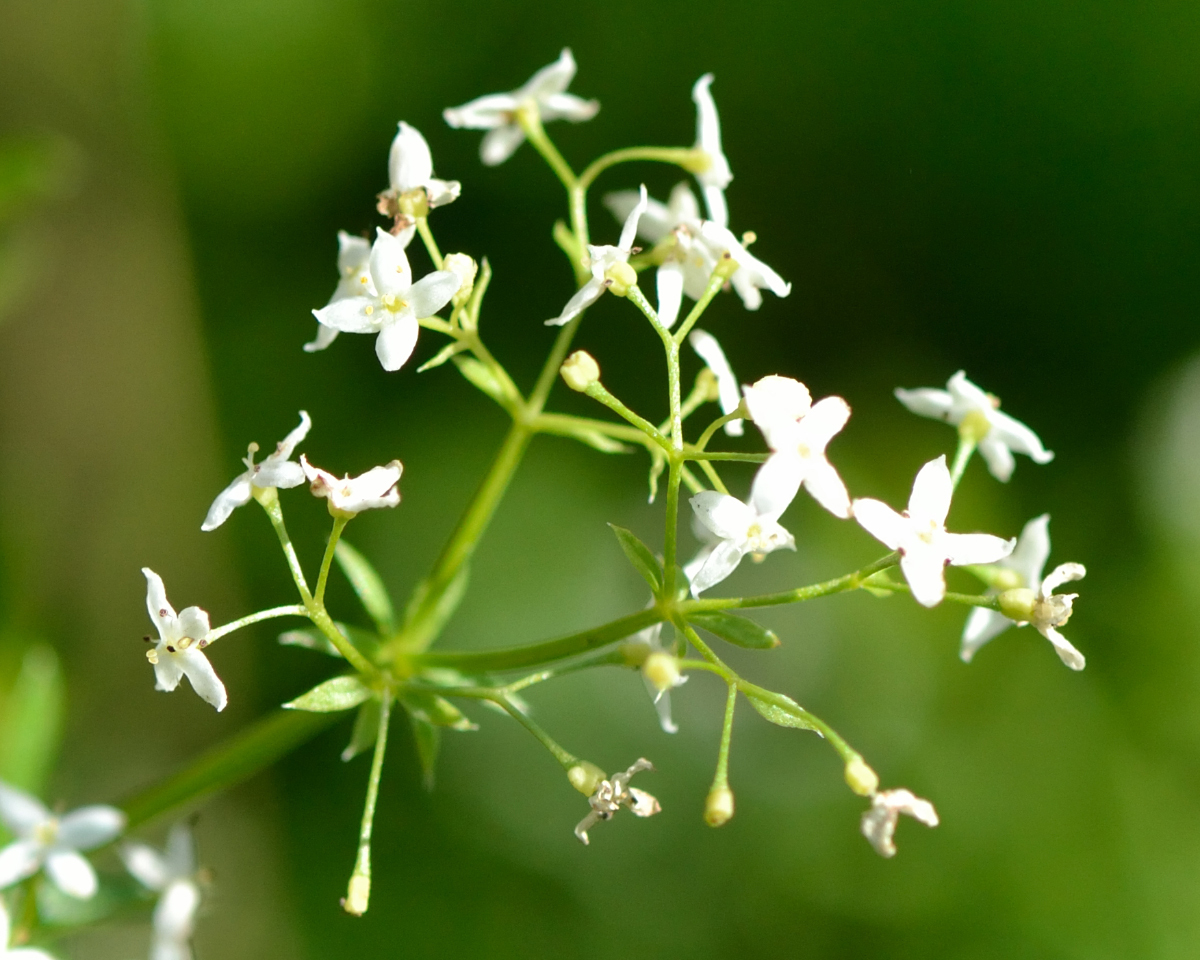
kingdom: Plantae
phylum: Tracheophyta
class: Magnoliopsida
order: Gentianales
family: Rubiaceae
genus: Galium
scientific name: Galium mollugo
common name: Hedge bedstraw
